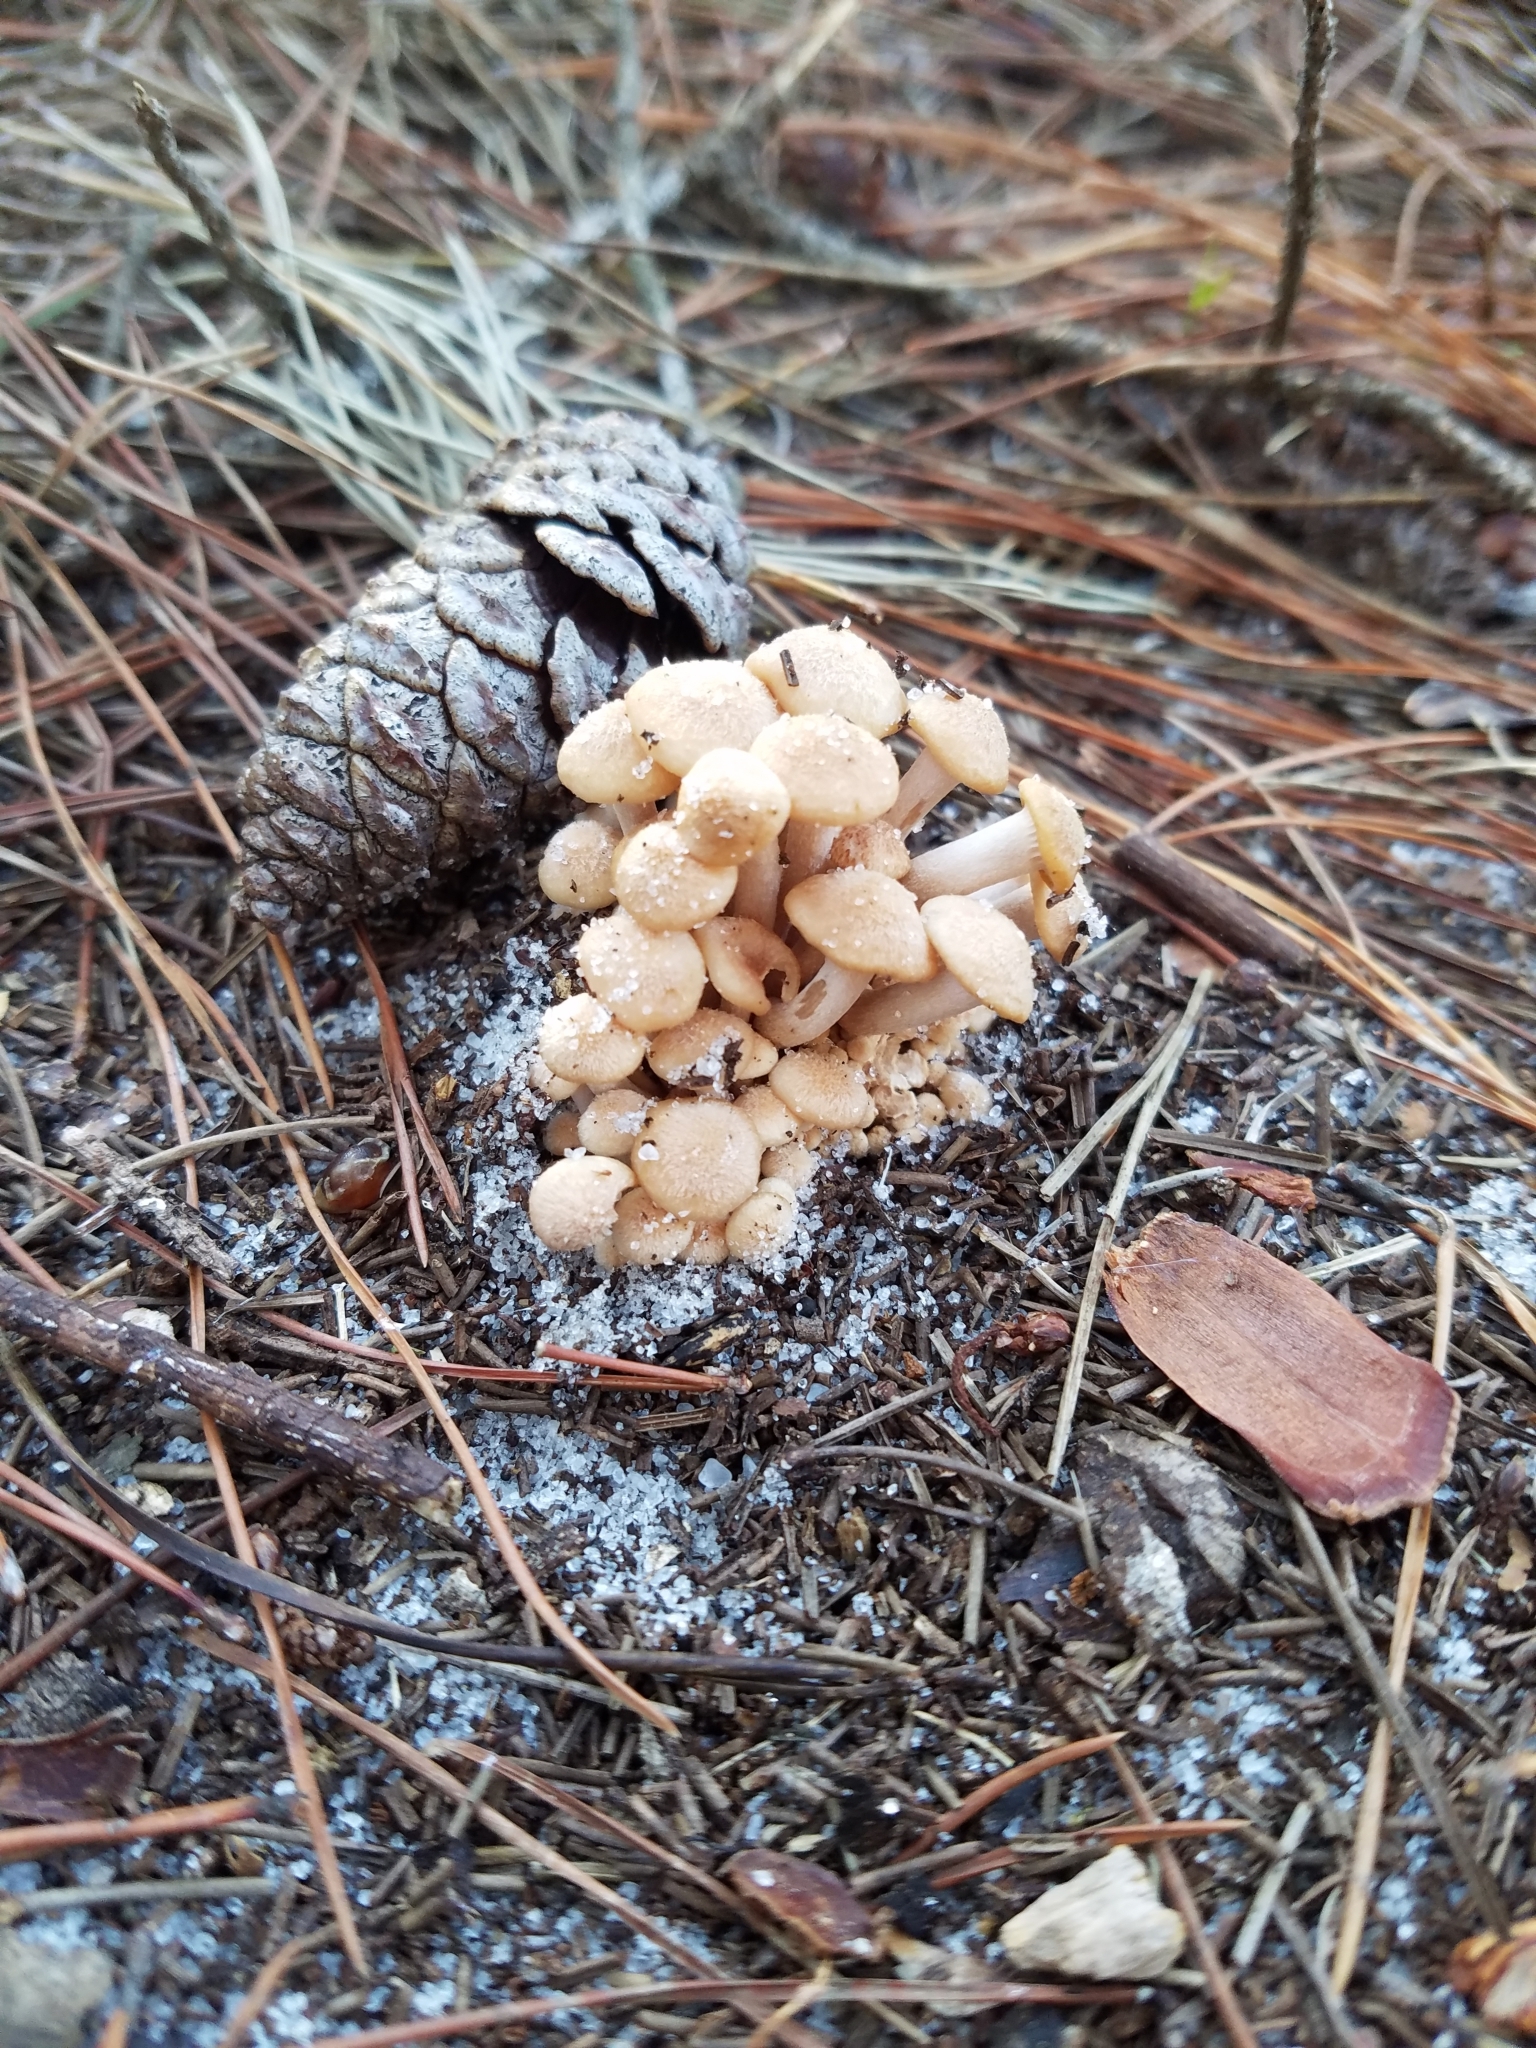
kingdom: Fungi
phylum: Basidiomycota
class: Agaricomycetes
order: Agaricales
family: Physalacriaceae
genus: Desarmillaria
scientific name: Desarmillaria caespitosa
